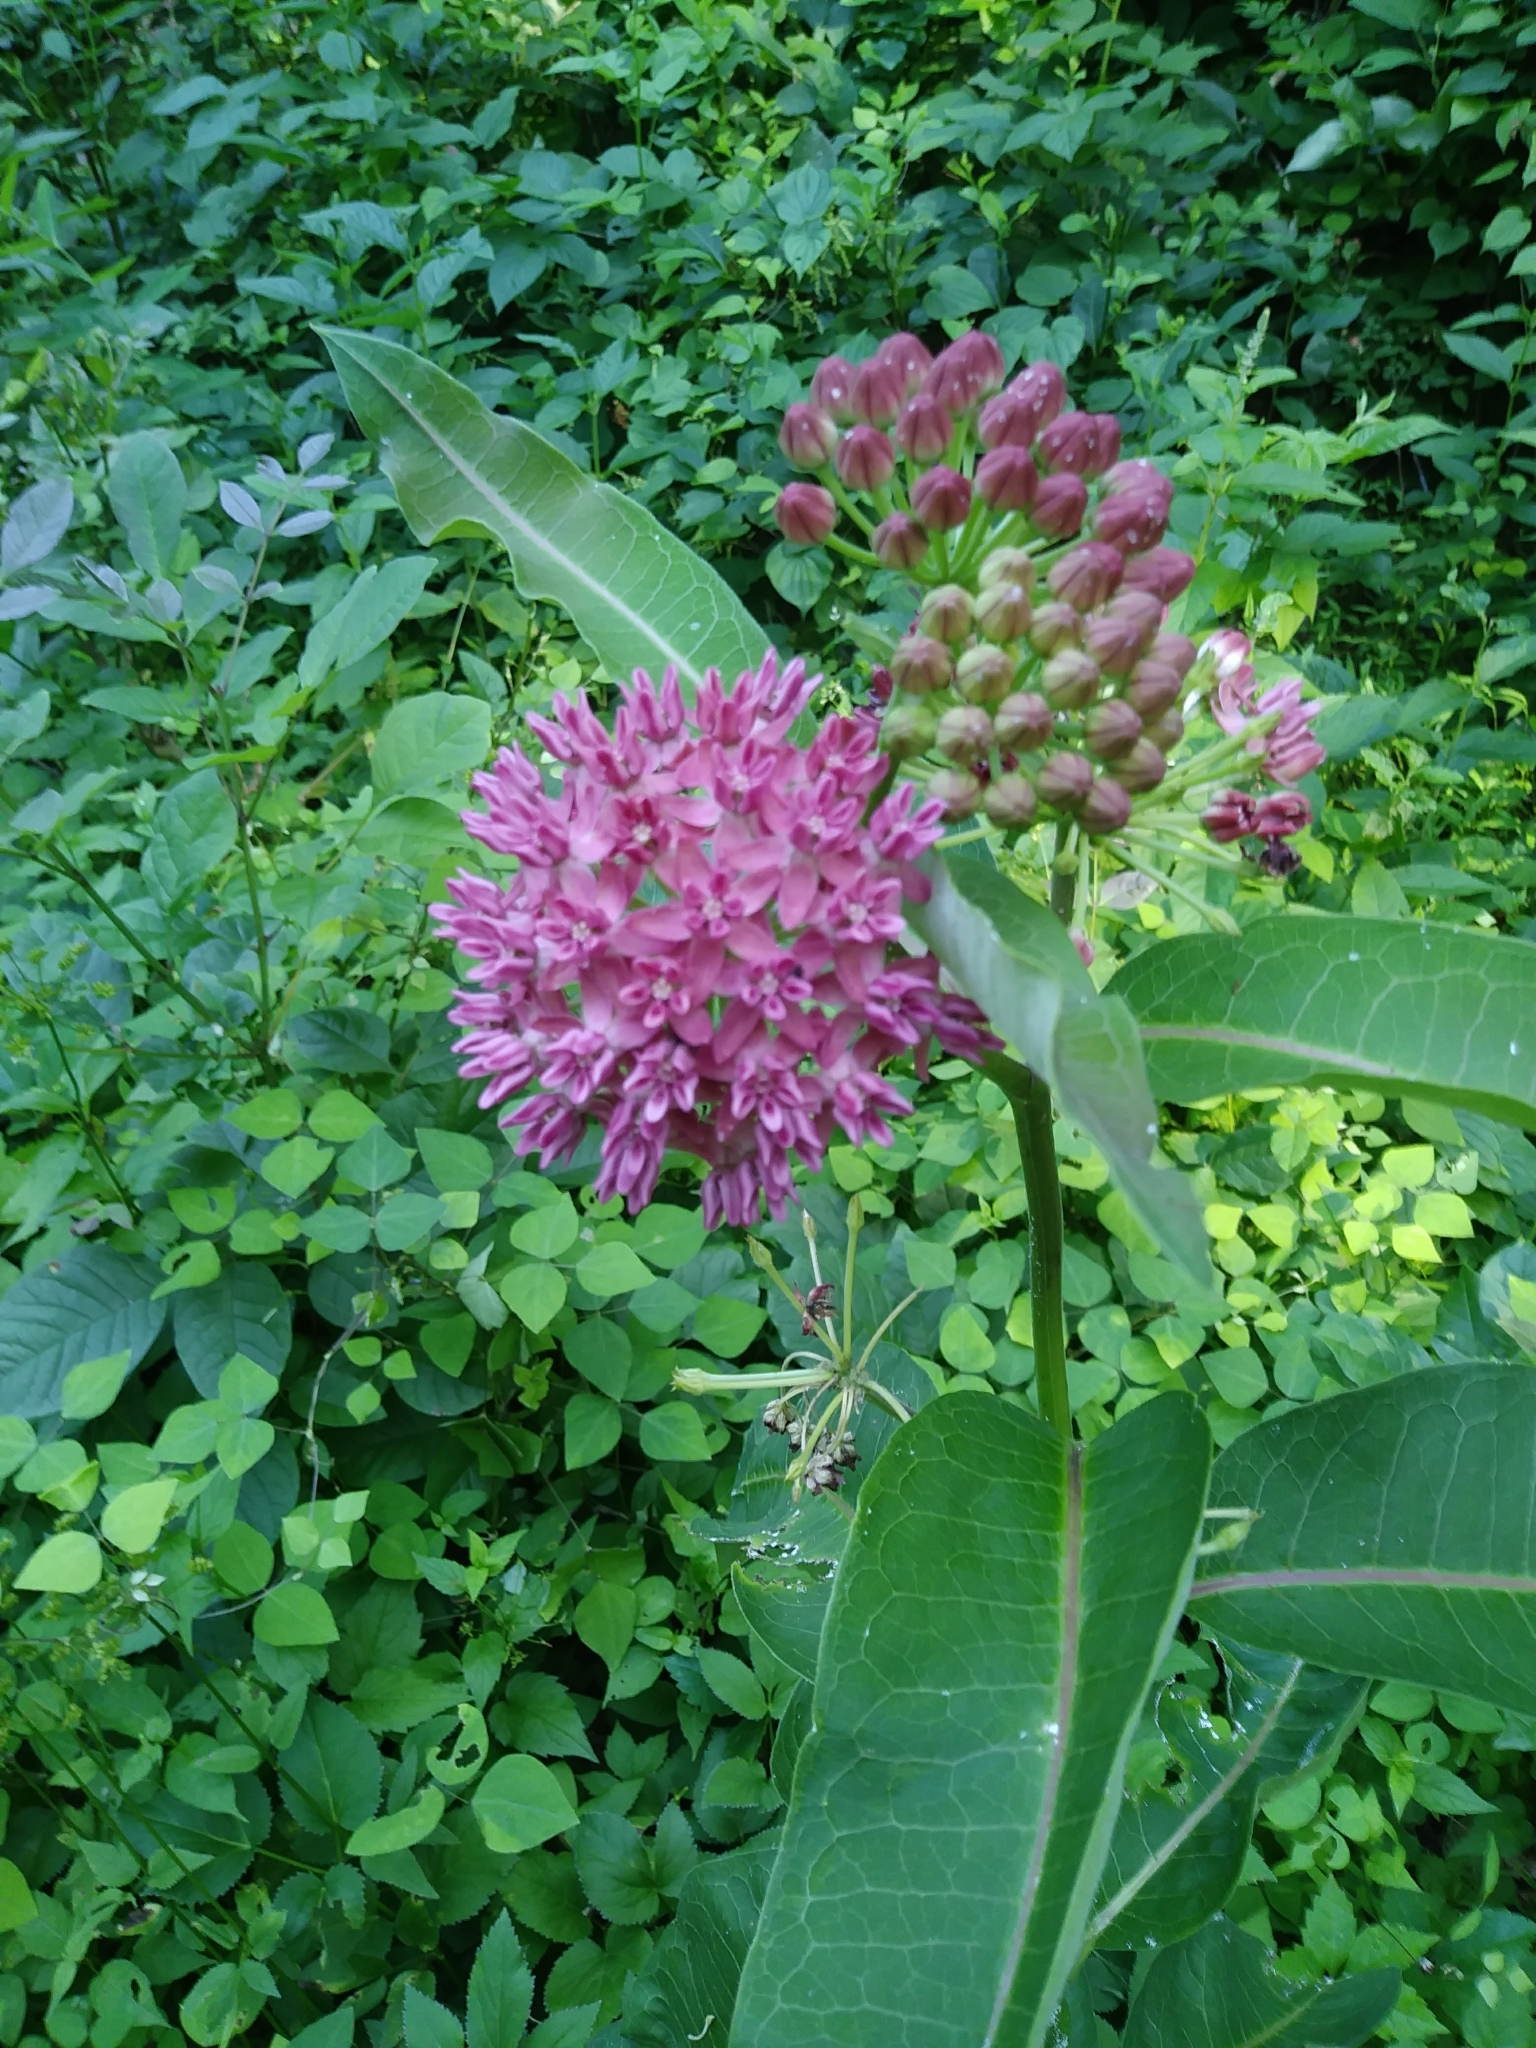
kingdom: Plantae
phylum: Tracheophyta
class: Magnoliopsida
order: Gentianales
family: Apocynaceae
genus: Asclepias
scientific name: Asclepias purpurascens
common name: Purple milkweed
